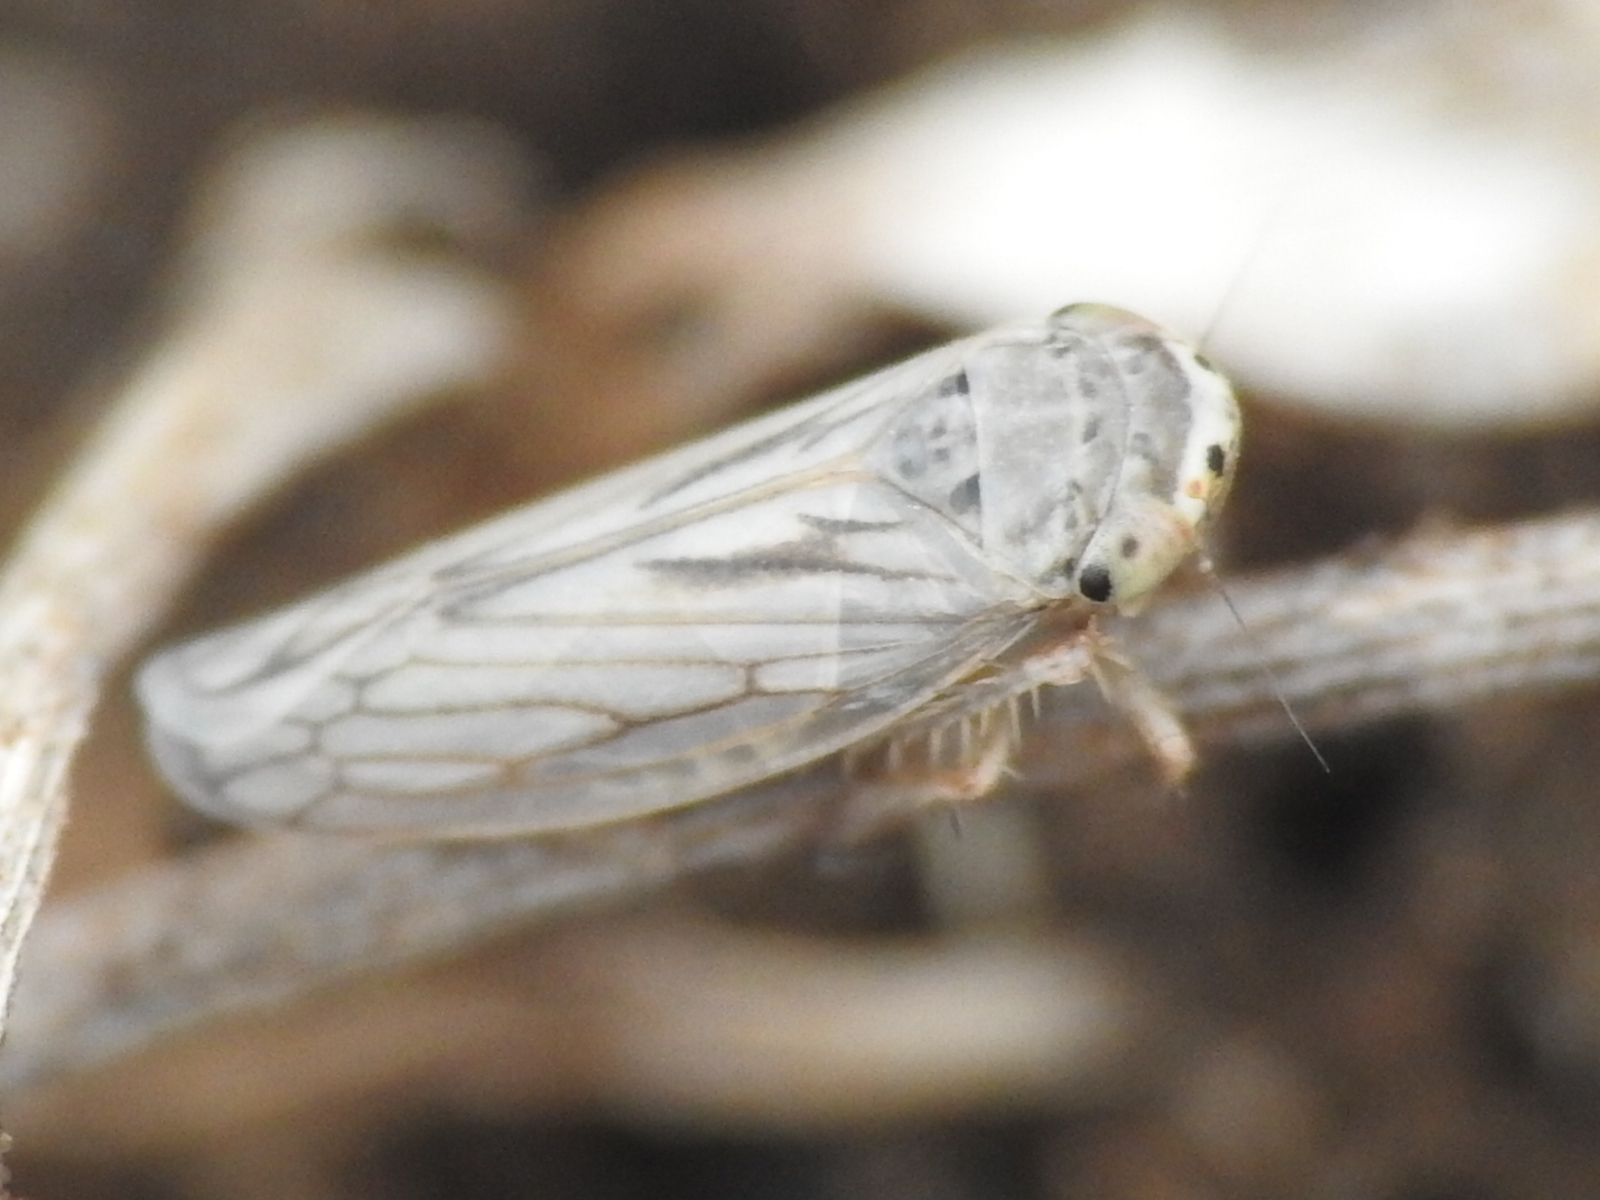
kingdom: Animalia
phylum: Arthropoda
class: Insecta
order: Hemiptera
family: Cicadellidae
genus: Exitianus
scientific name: Exitianus exitiosus
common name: Gray lawn leafhopper
